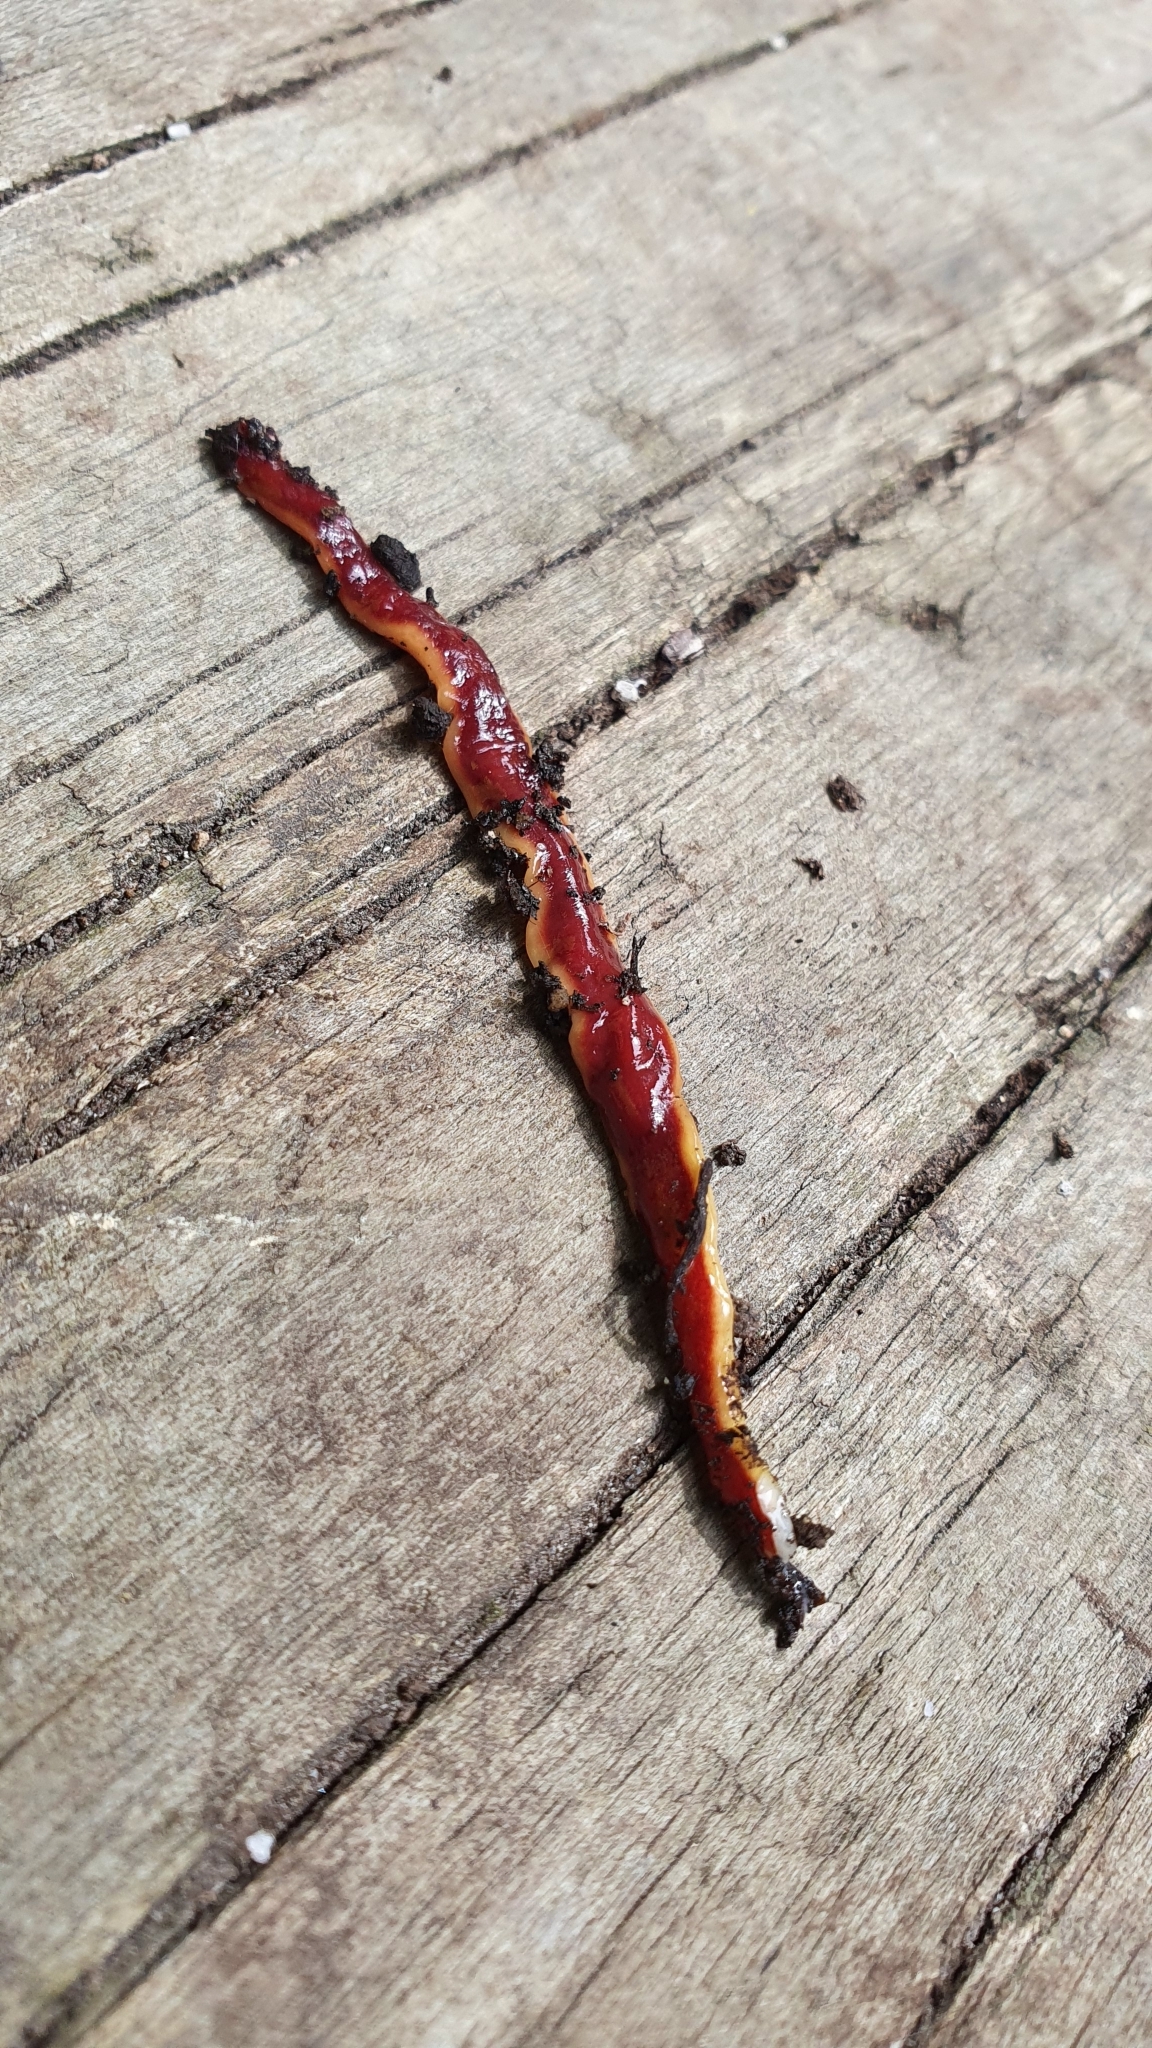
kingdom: Animalia
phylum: Platyhelminthes
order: Tricladida
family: Geoplanidae
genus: Arthurdendyus
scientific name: Arthurdendyus testaceus
